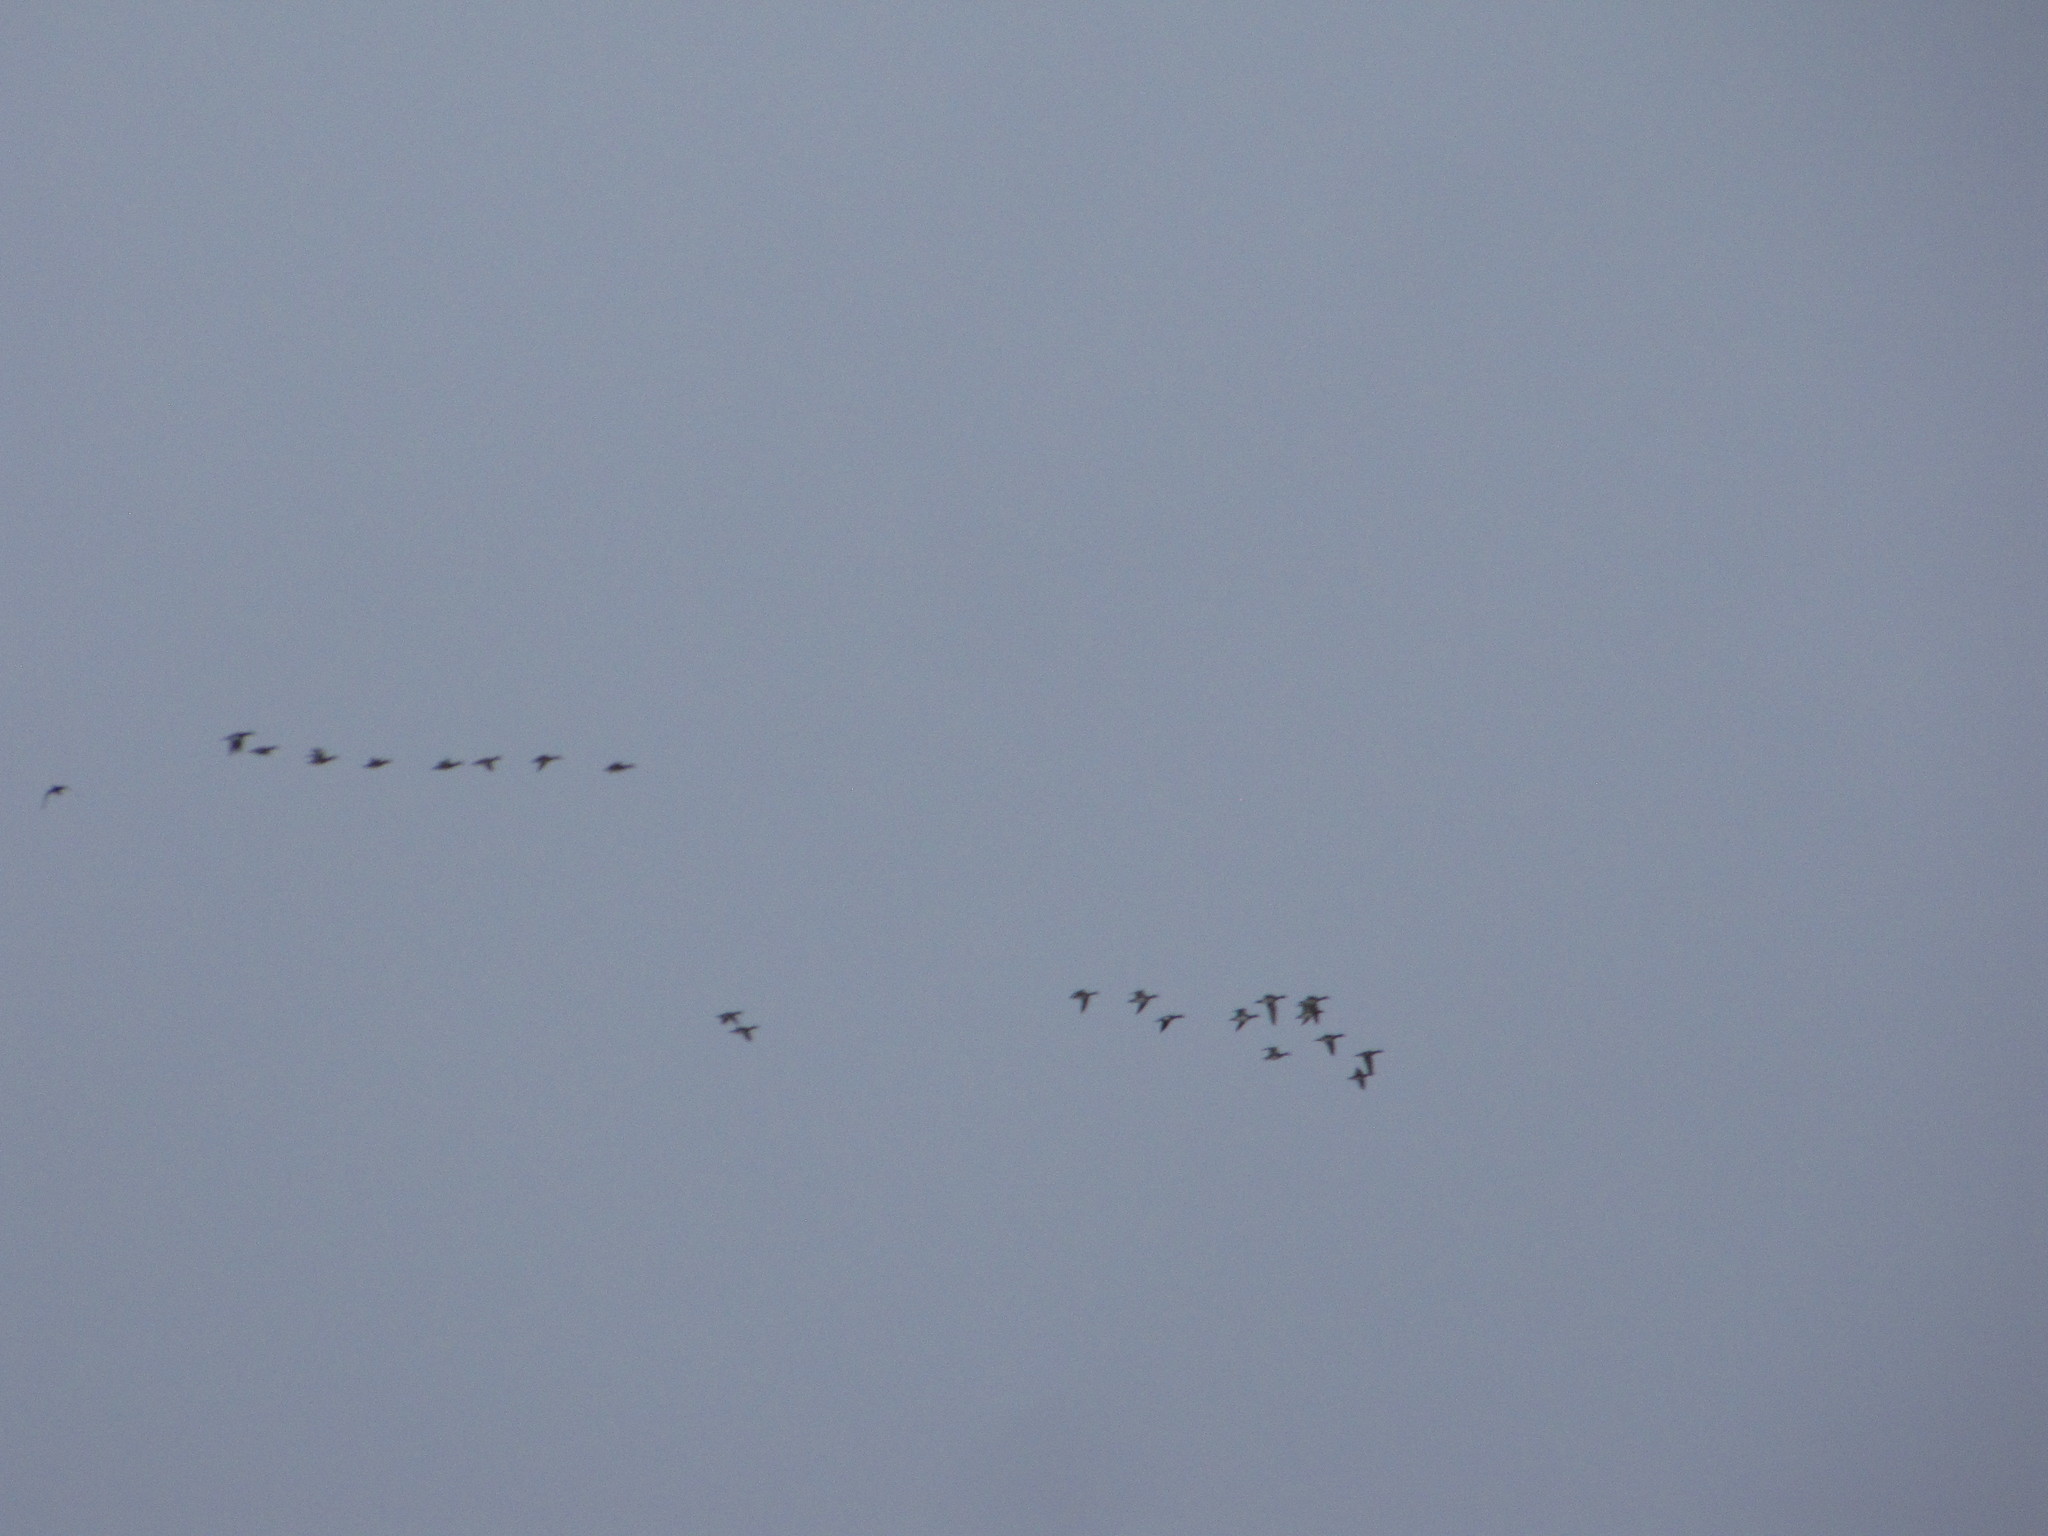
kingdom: Animalia
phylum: Chordata
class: Aves
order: Anseriformes
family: Anatidae
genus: Anas
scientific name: Anas platyrhynchos
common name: Mallard
